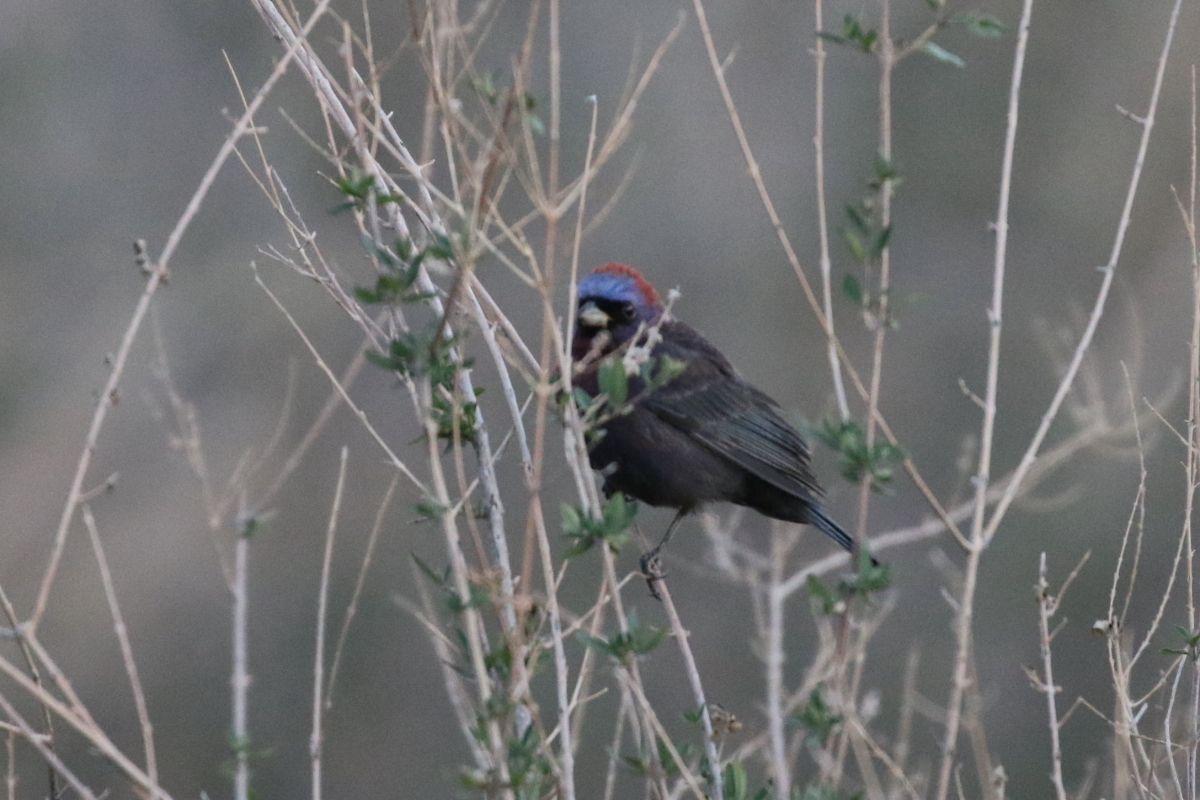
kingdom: Animalia
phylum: Chordata
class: Aves
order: Passeriformes
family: Cardinalidae
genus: Passerina
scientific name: Passerina versicolor
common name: Varied bunting
